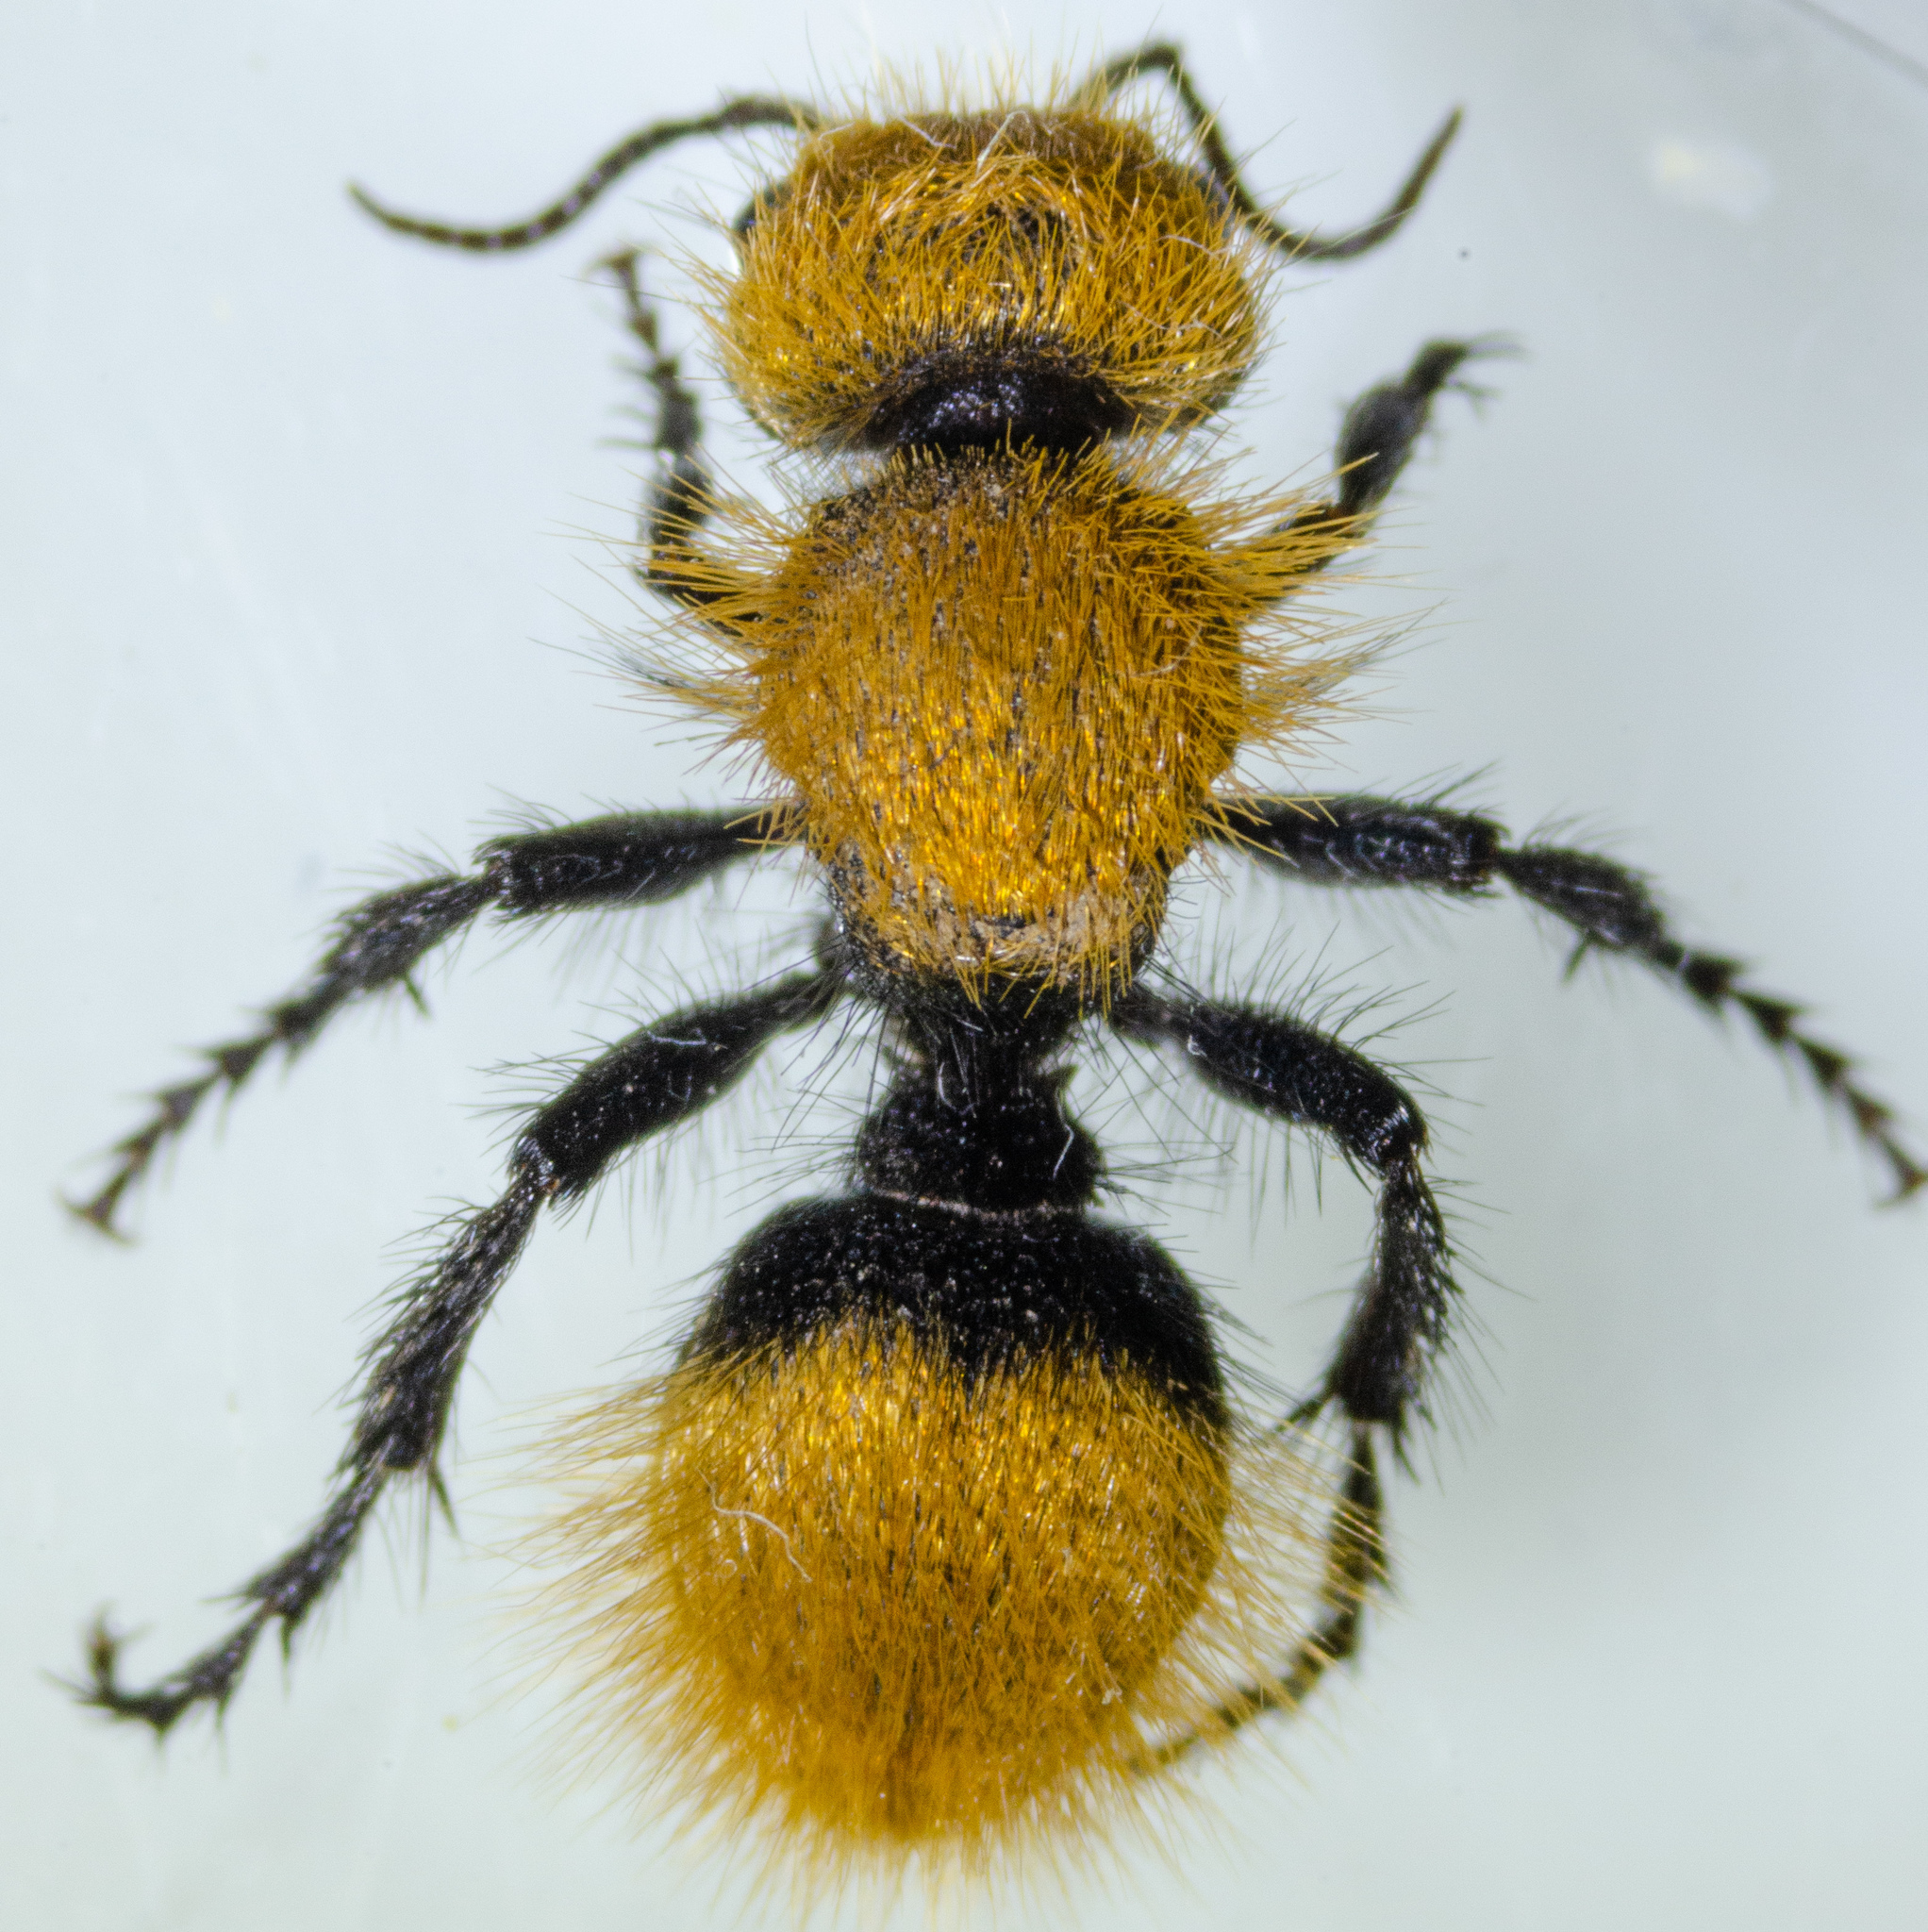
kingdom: Animalia
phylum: Arthropoda
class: Insecta
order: Hymenoptera
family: Mutillidae
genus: Dasymutilla
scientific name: Dasymutilla
